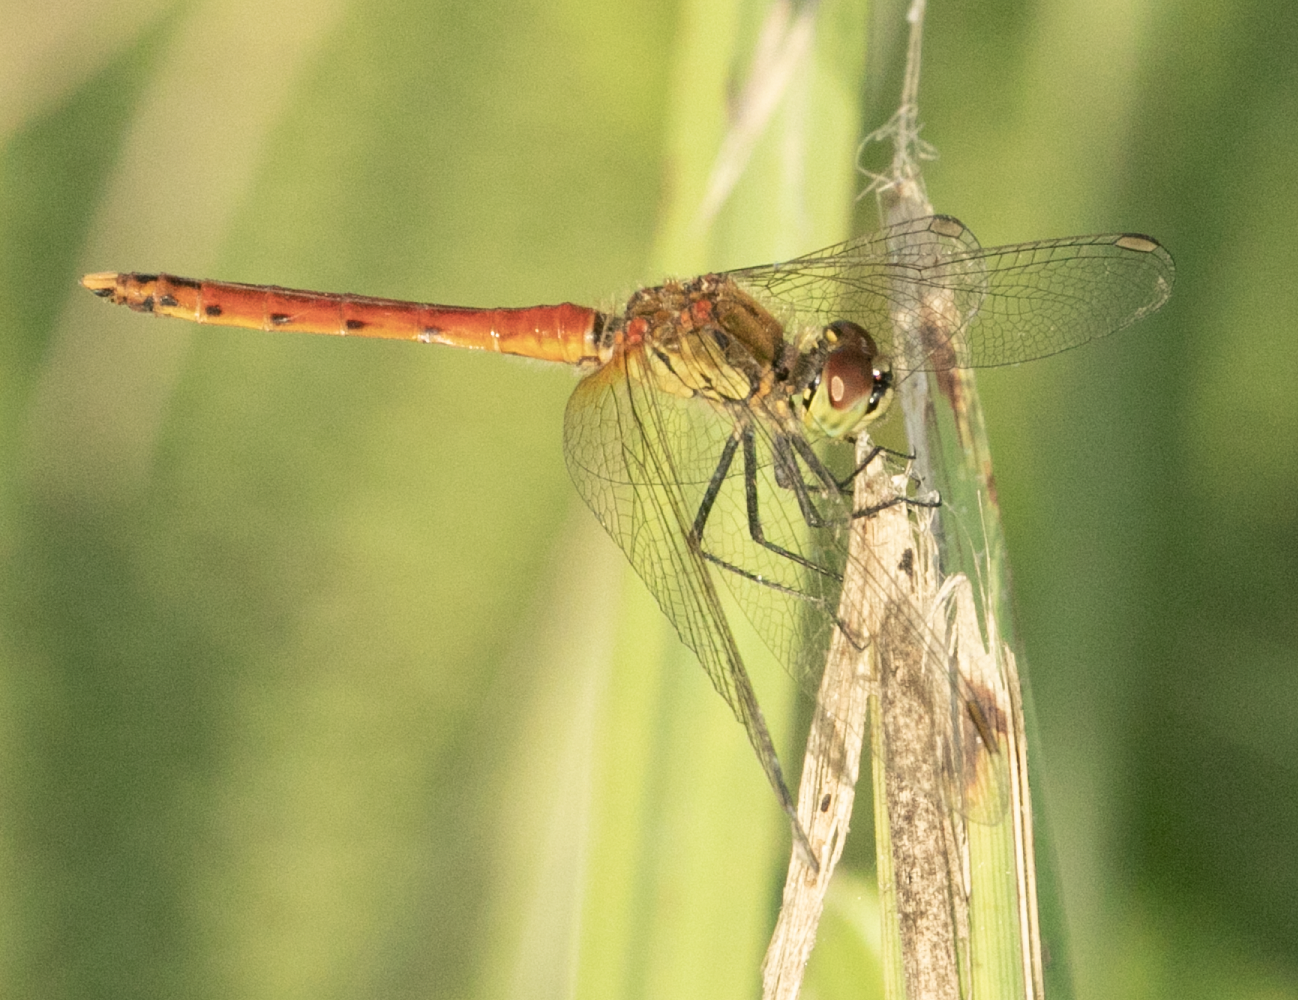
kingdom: Animalia
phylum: Arthropoda
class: Insecta
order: Odonata
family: Libellulidae
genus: Sympetrum
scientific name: Sympetrum depressiusculum
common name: Spotted darter
